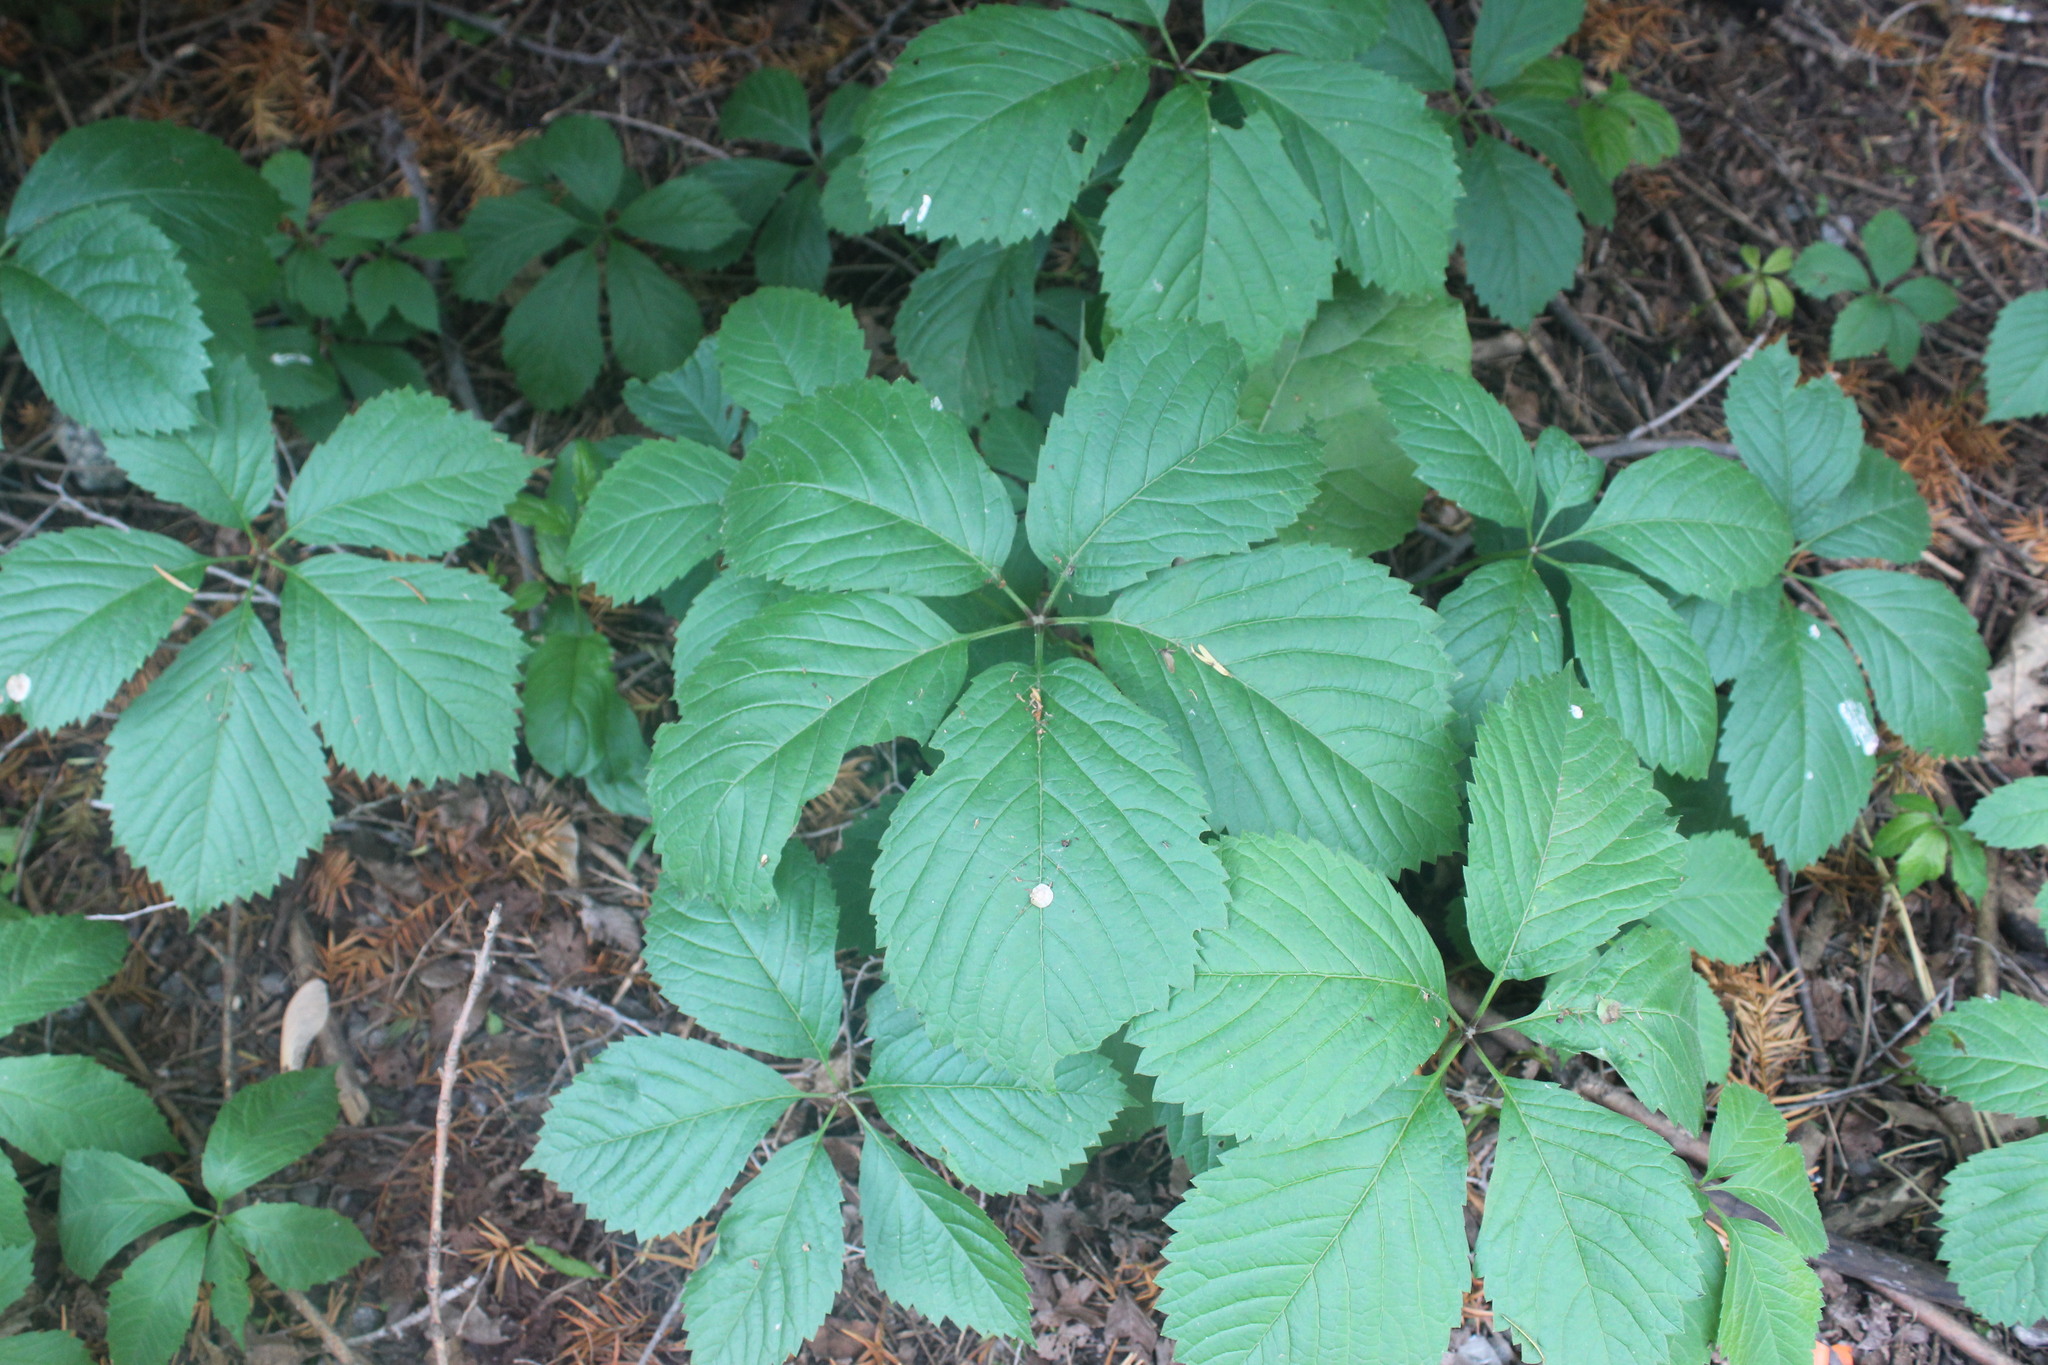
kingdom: Plantae
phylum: Tracheophyta
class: Magnoliopsida
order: Vitales
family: Vitaceae
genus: Parthenocissus
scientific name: Parthenocissus inserta
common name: False virginia-creeper
